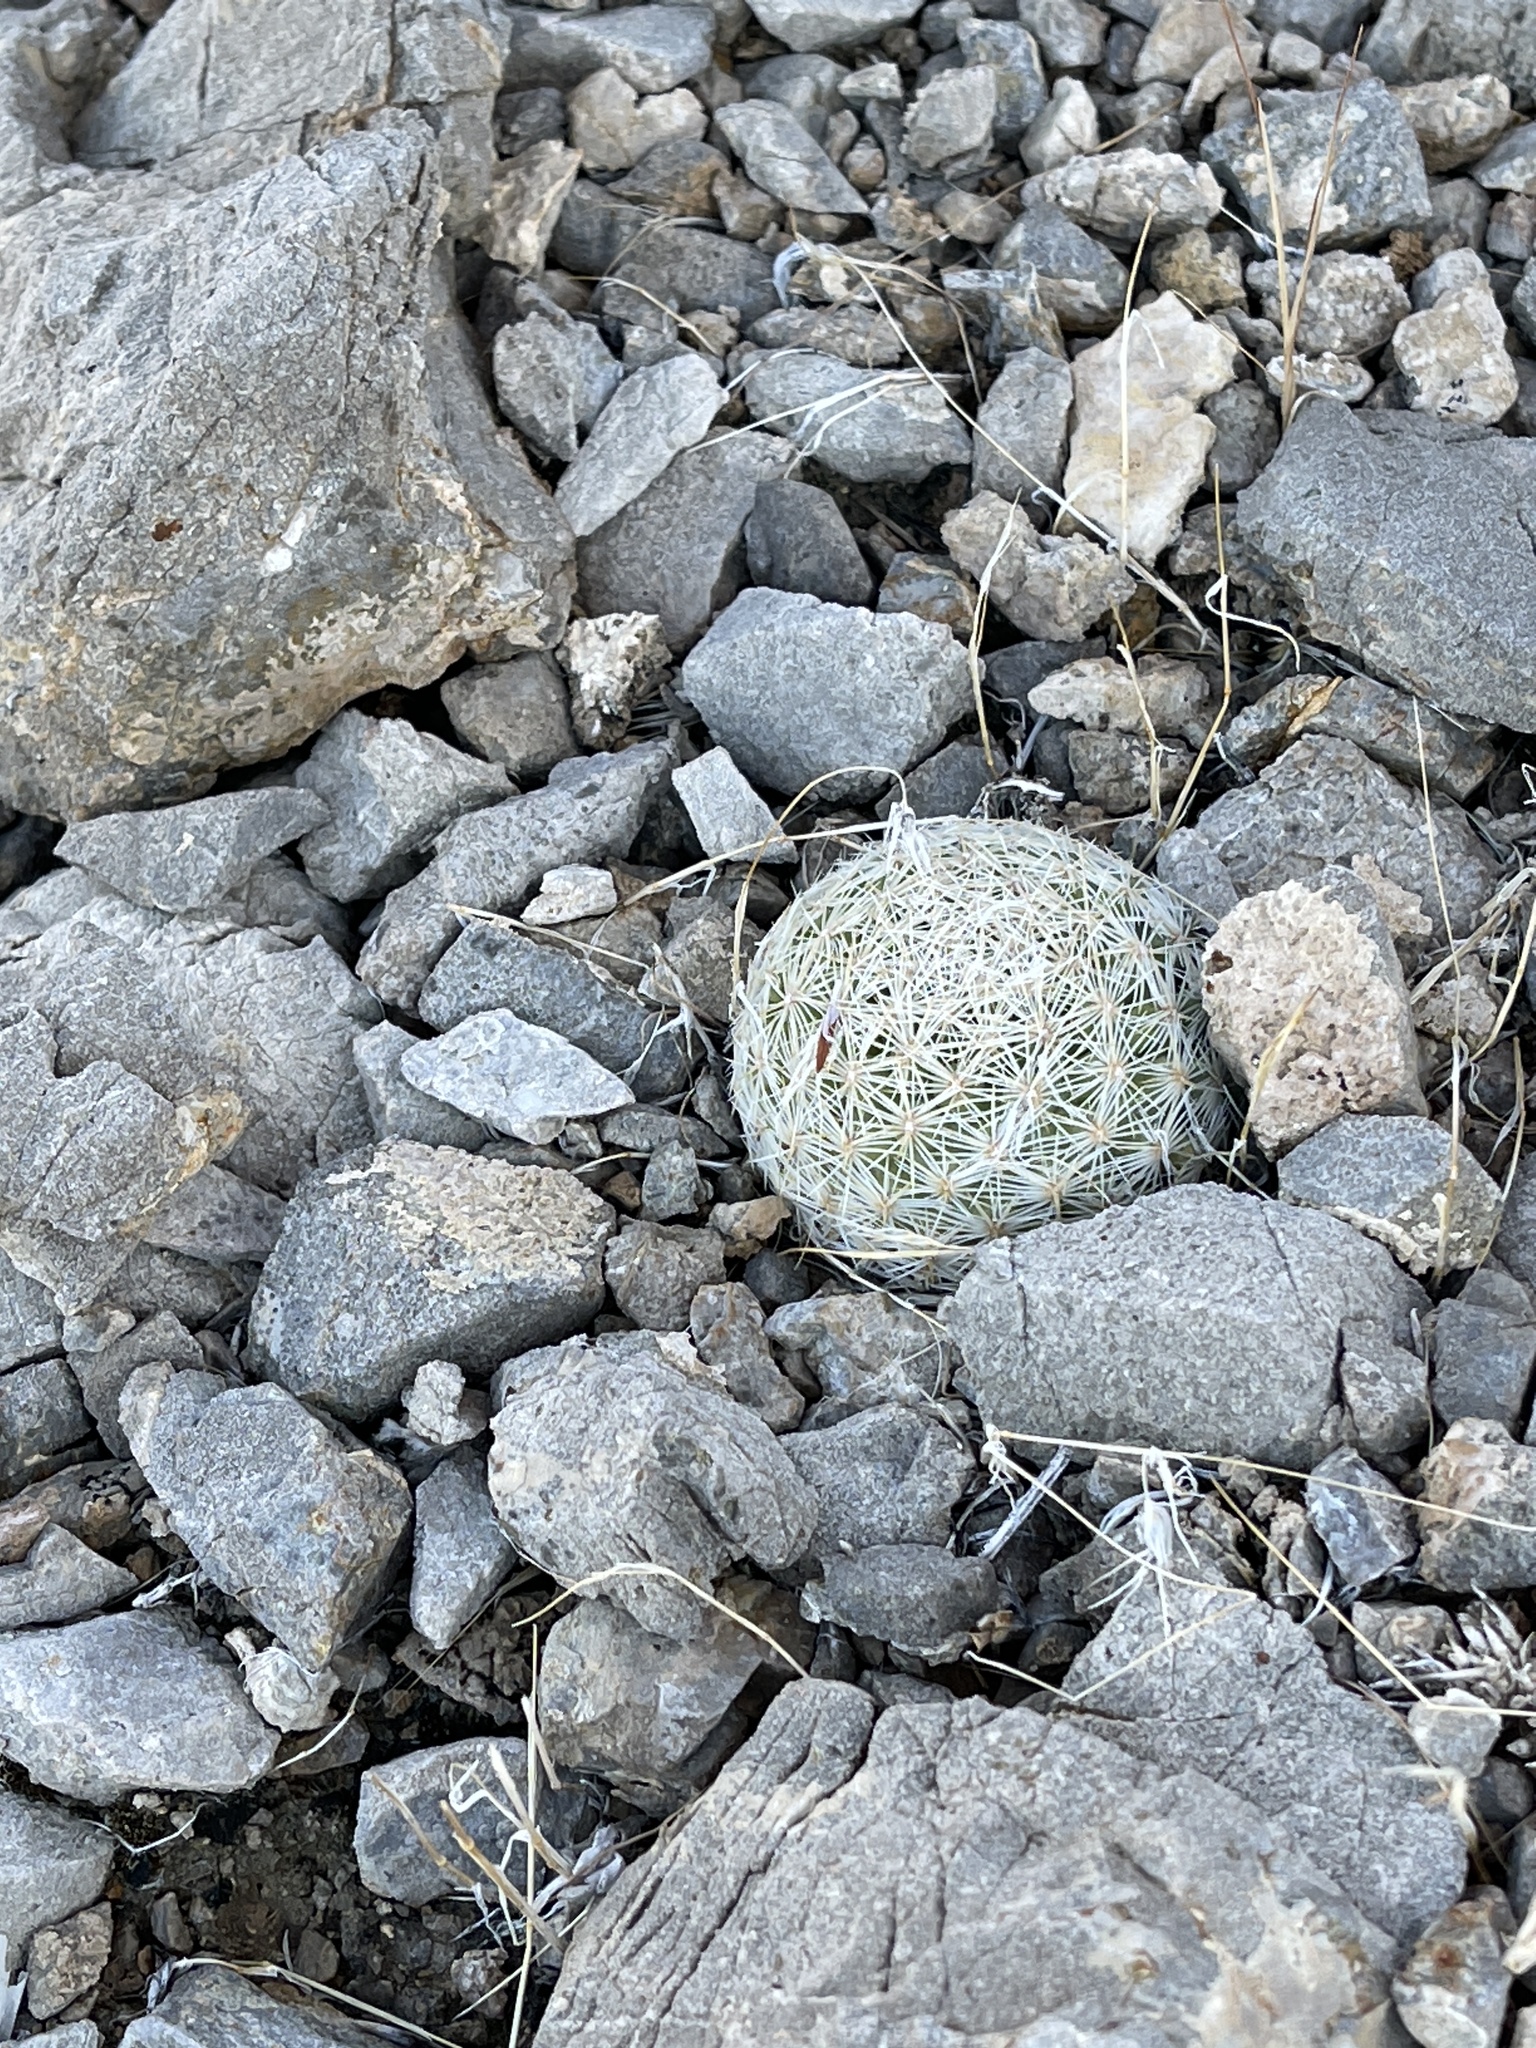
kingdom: Plantae
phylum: Tracheophyta
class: Magnoliopsida
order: Caryophyllales
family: Cactaceae
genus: Pelecyphora
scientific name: Pelecyphora dasyacantha
